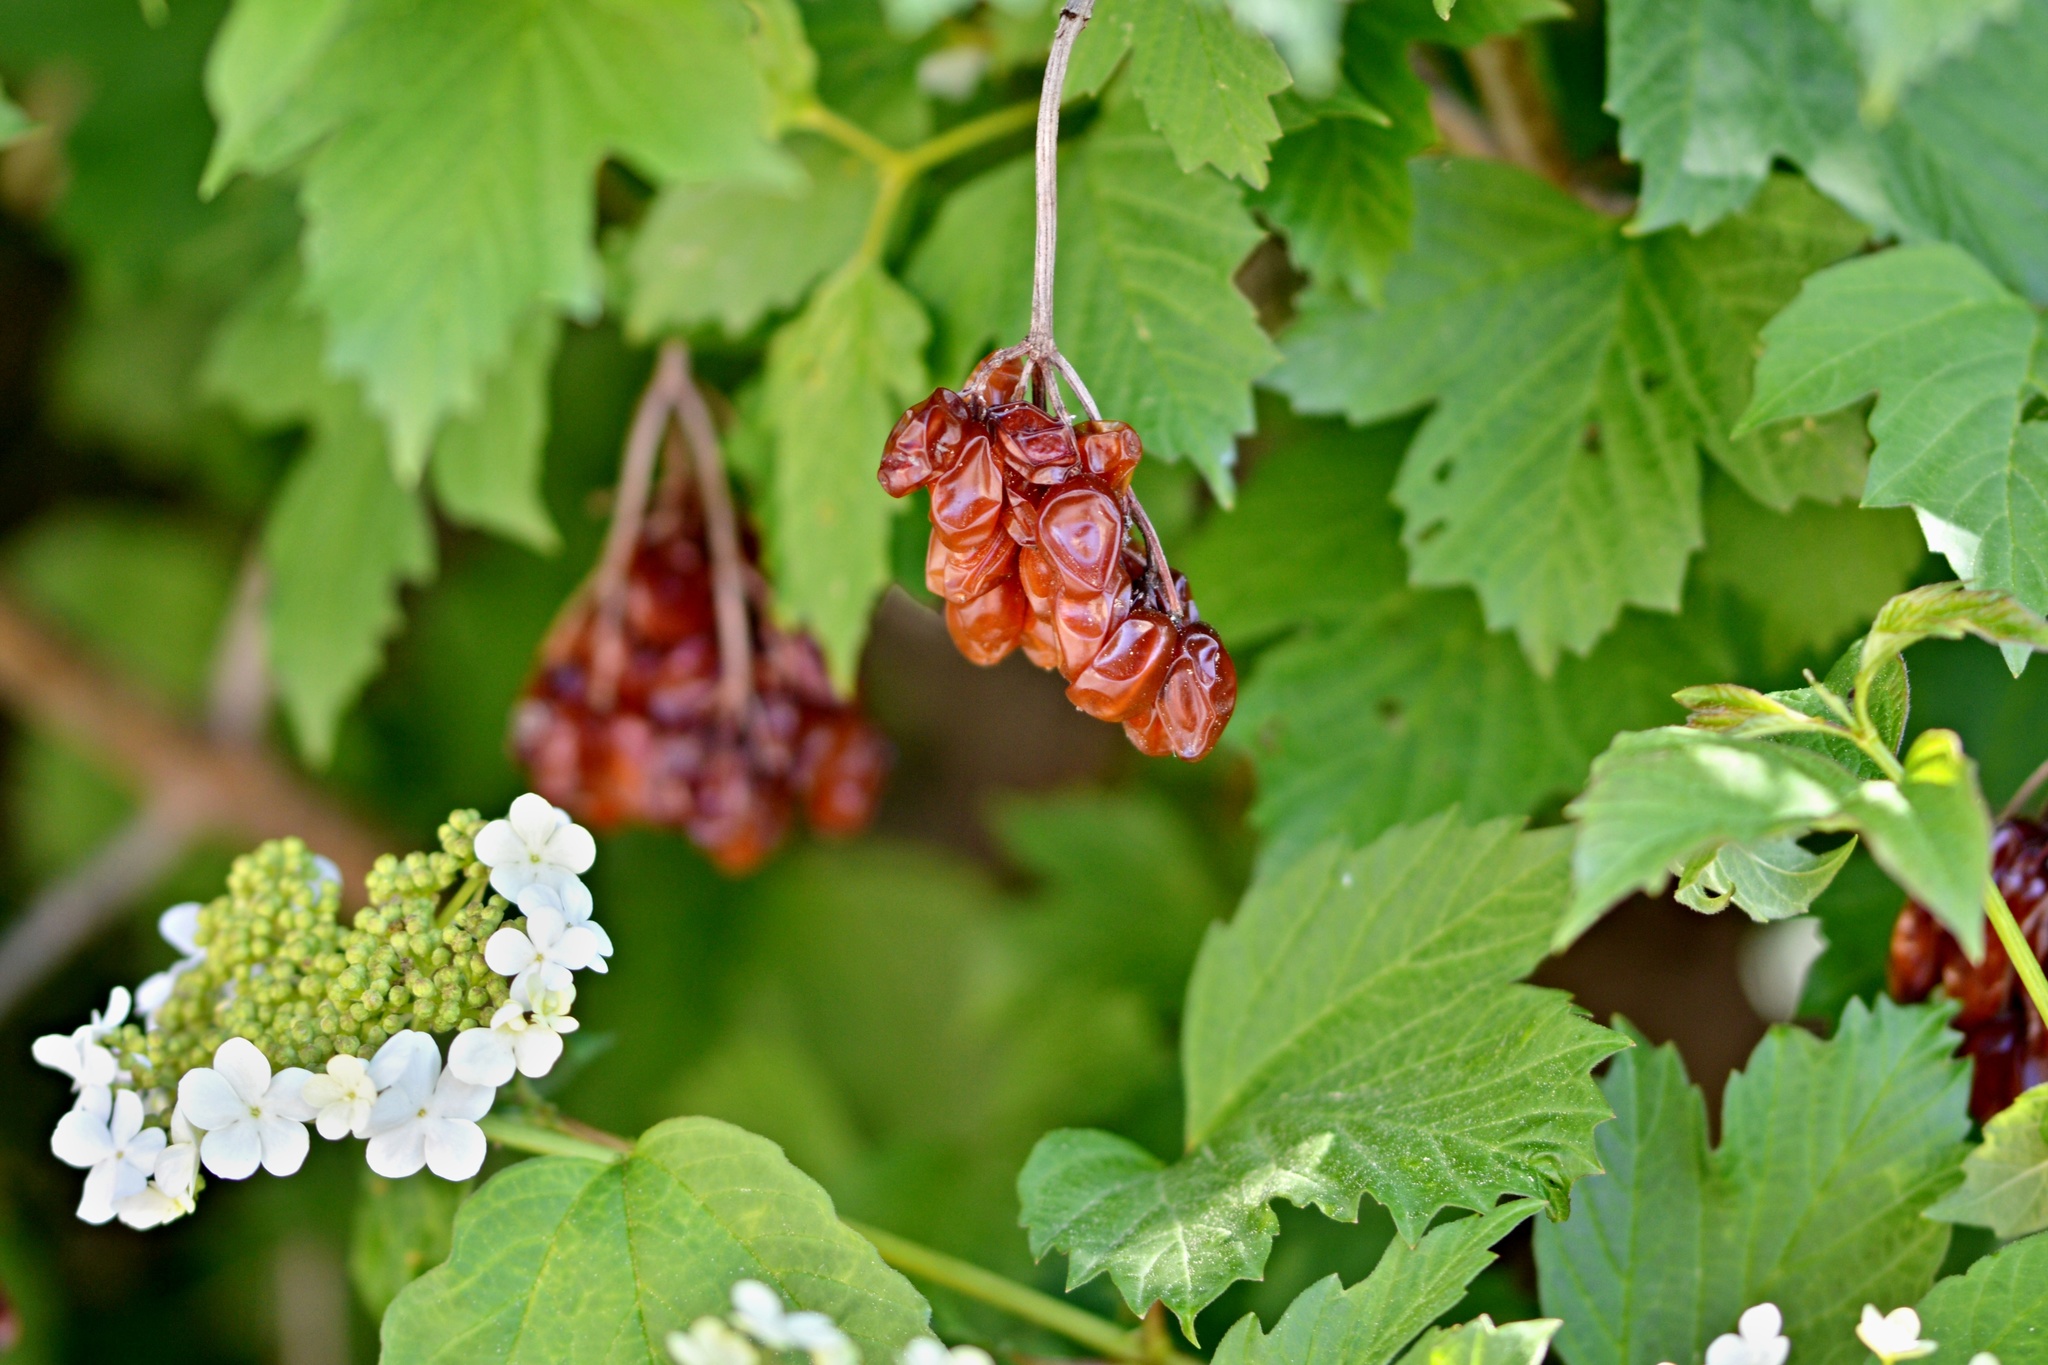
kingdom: Plantae
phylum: Tracheophyta
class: Magnoliopsida
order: Dipsacales
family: Viburnaceae
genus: Viburnum
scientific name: Viburnum opulus
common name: Guelder-rose
